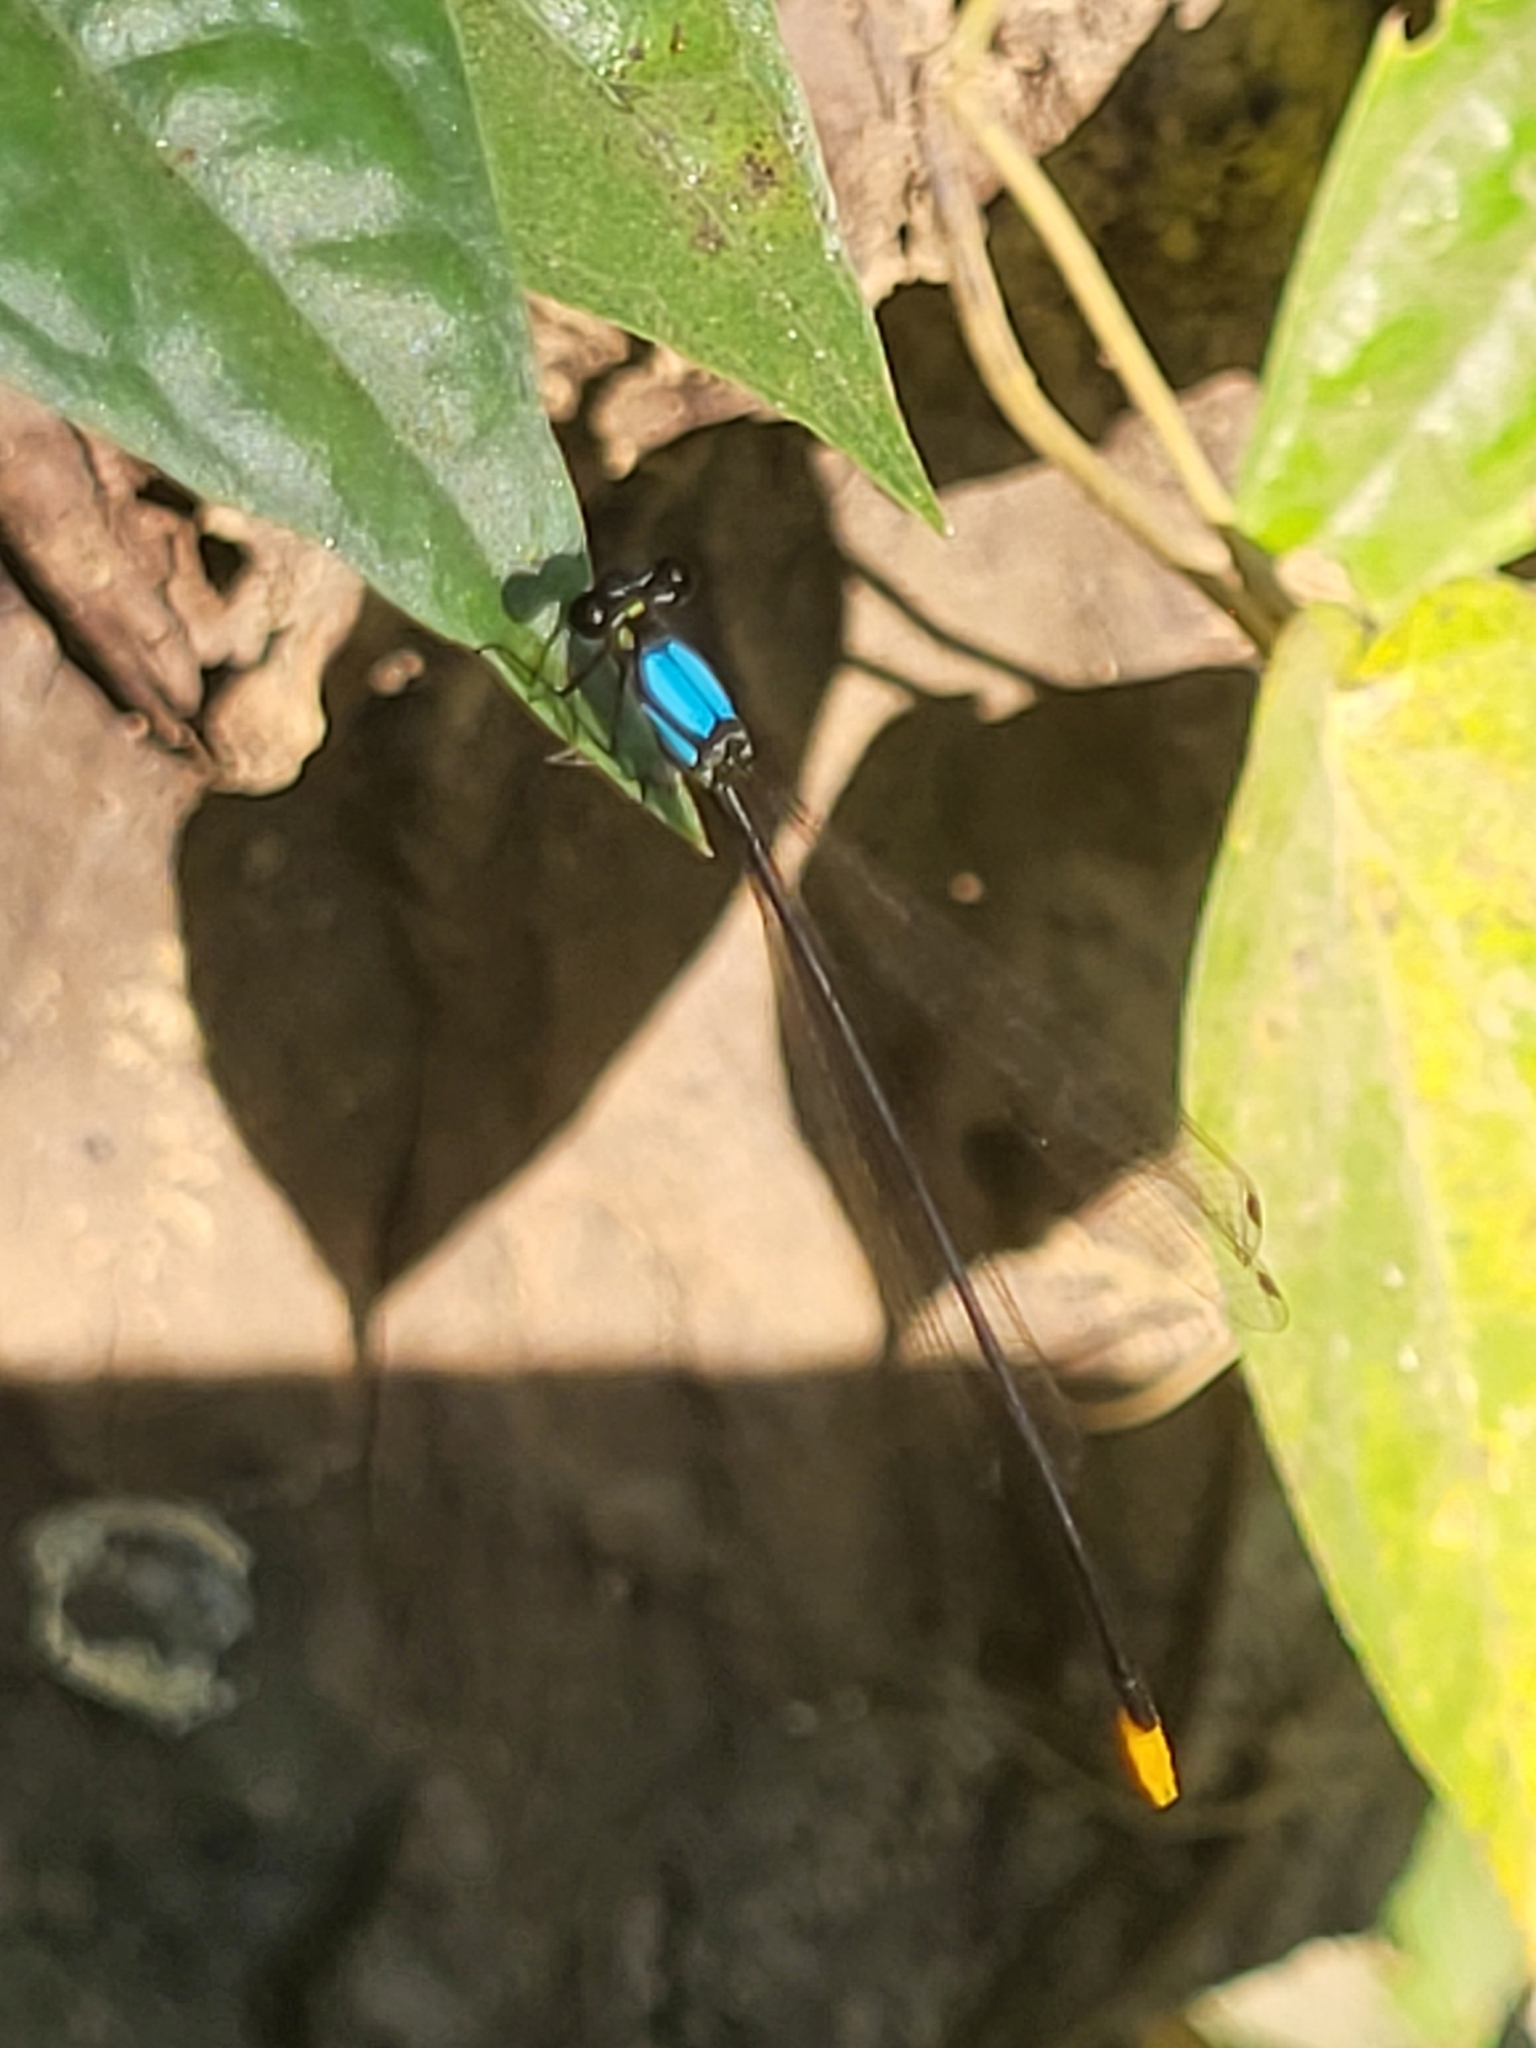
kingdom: Animalia
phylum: Arthropoda
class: Insecta
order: Odonata
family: Platycnemididae
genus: Coeliccia
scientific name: Coeliccia poungyi
